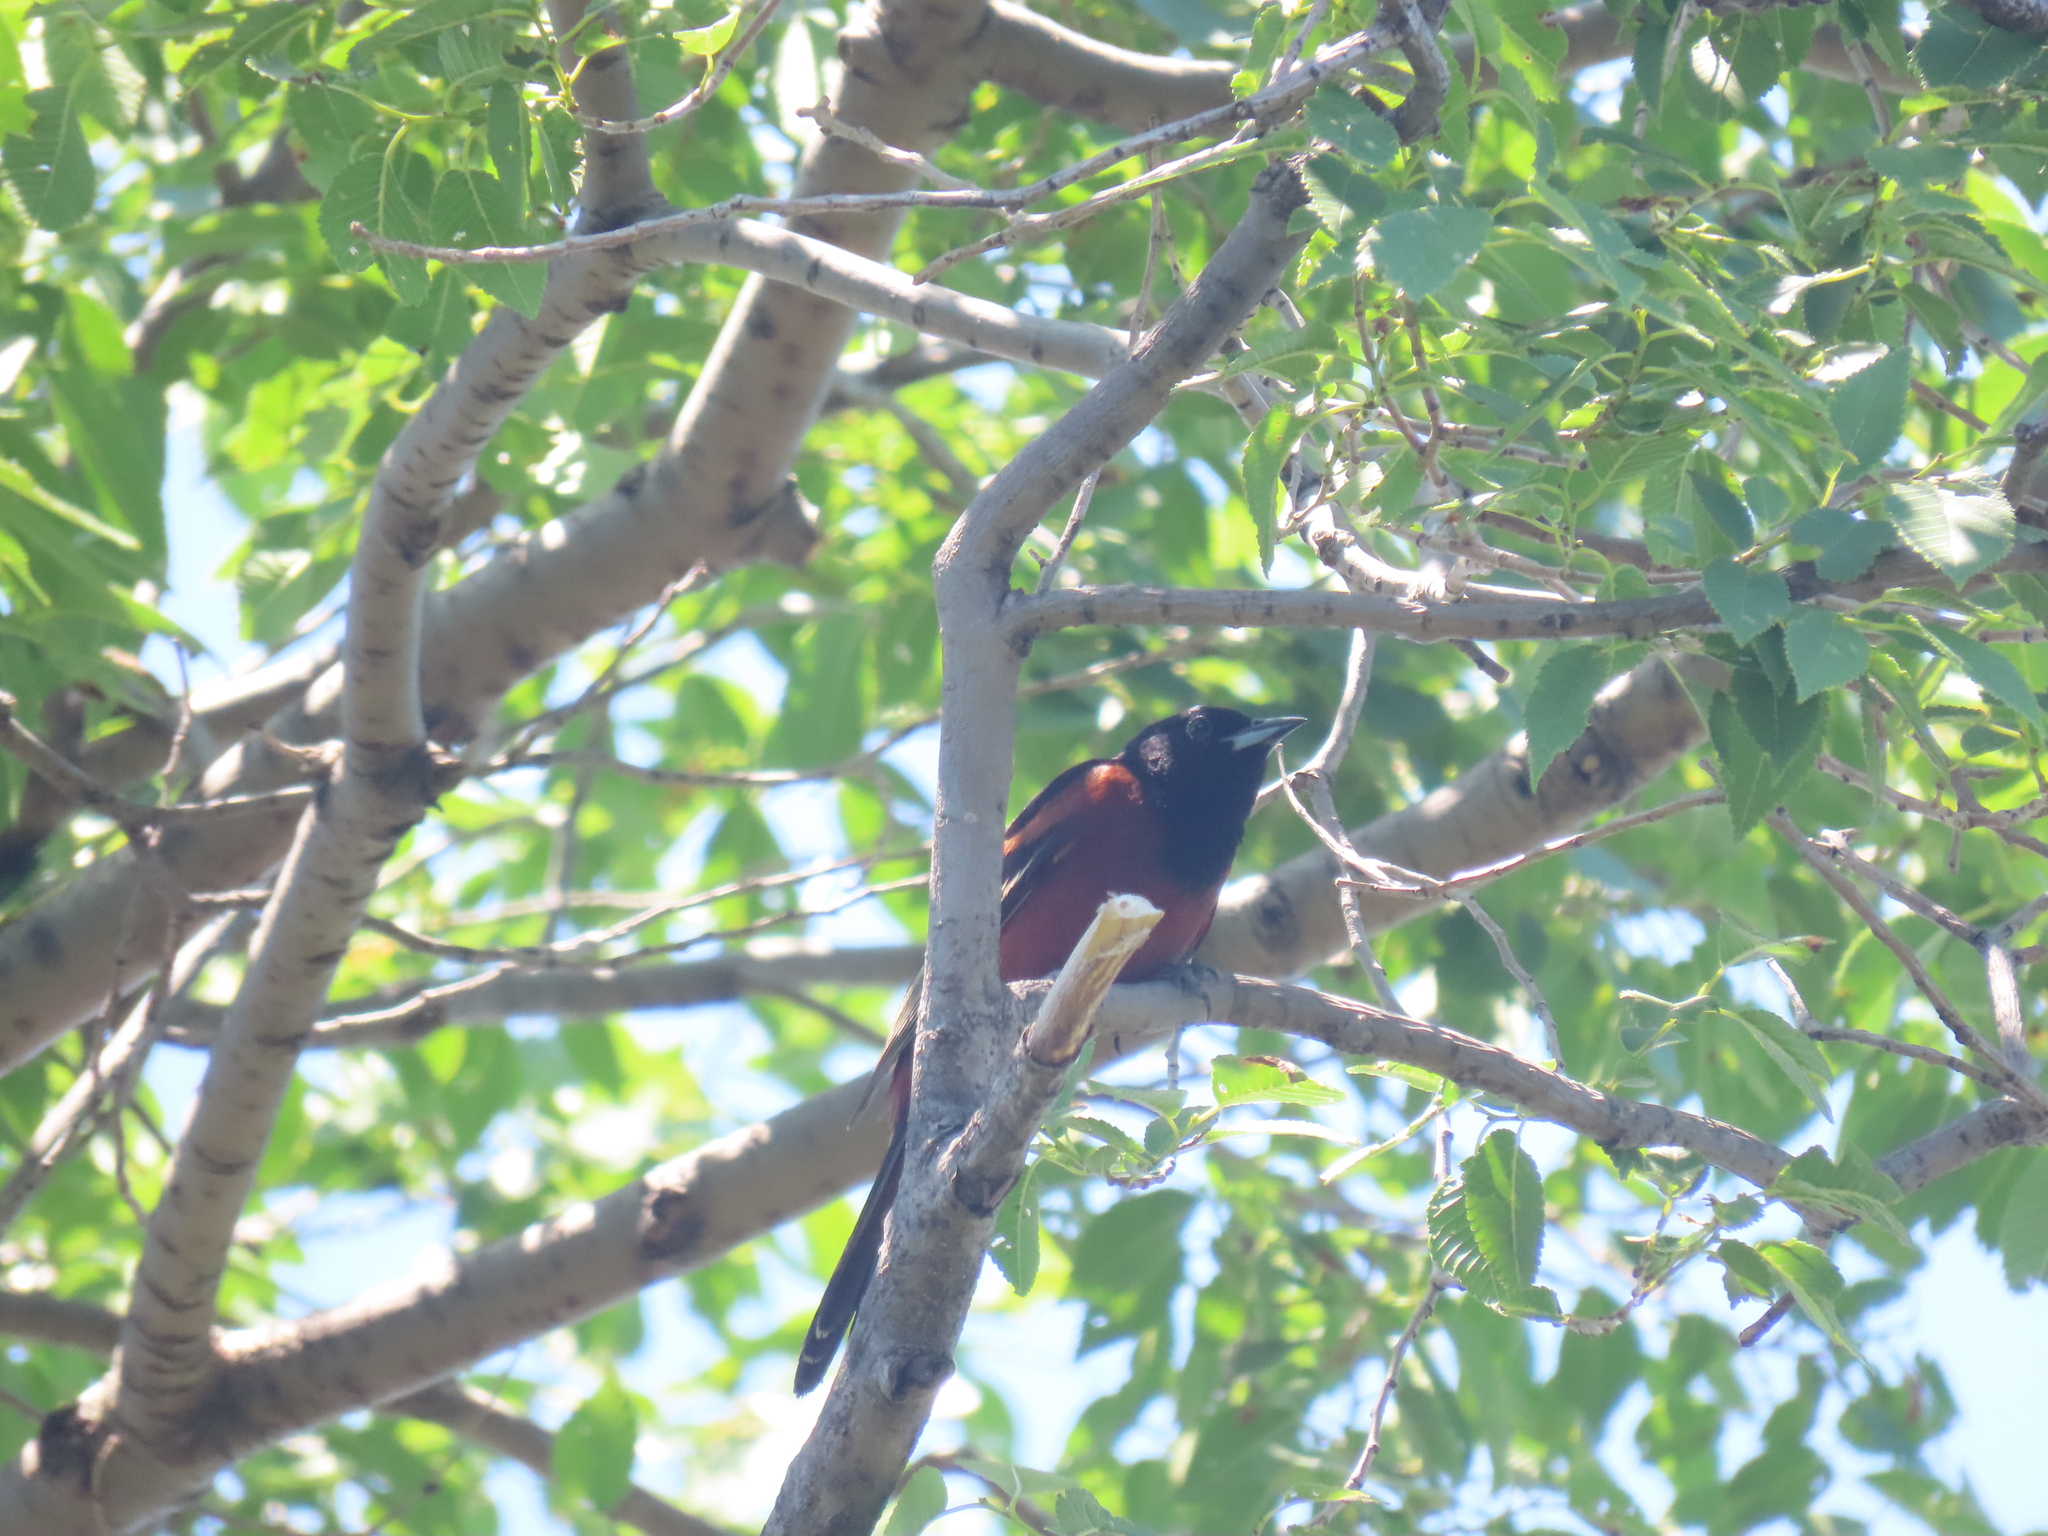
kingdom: Animalia
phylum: Chordata
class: Aves
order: Passeriformes
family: Icteridae
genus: Icterus
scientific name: Icterus spurius
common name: Orchard oriole
